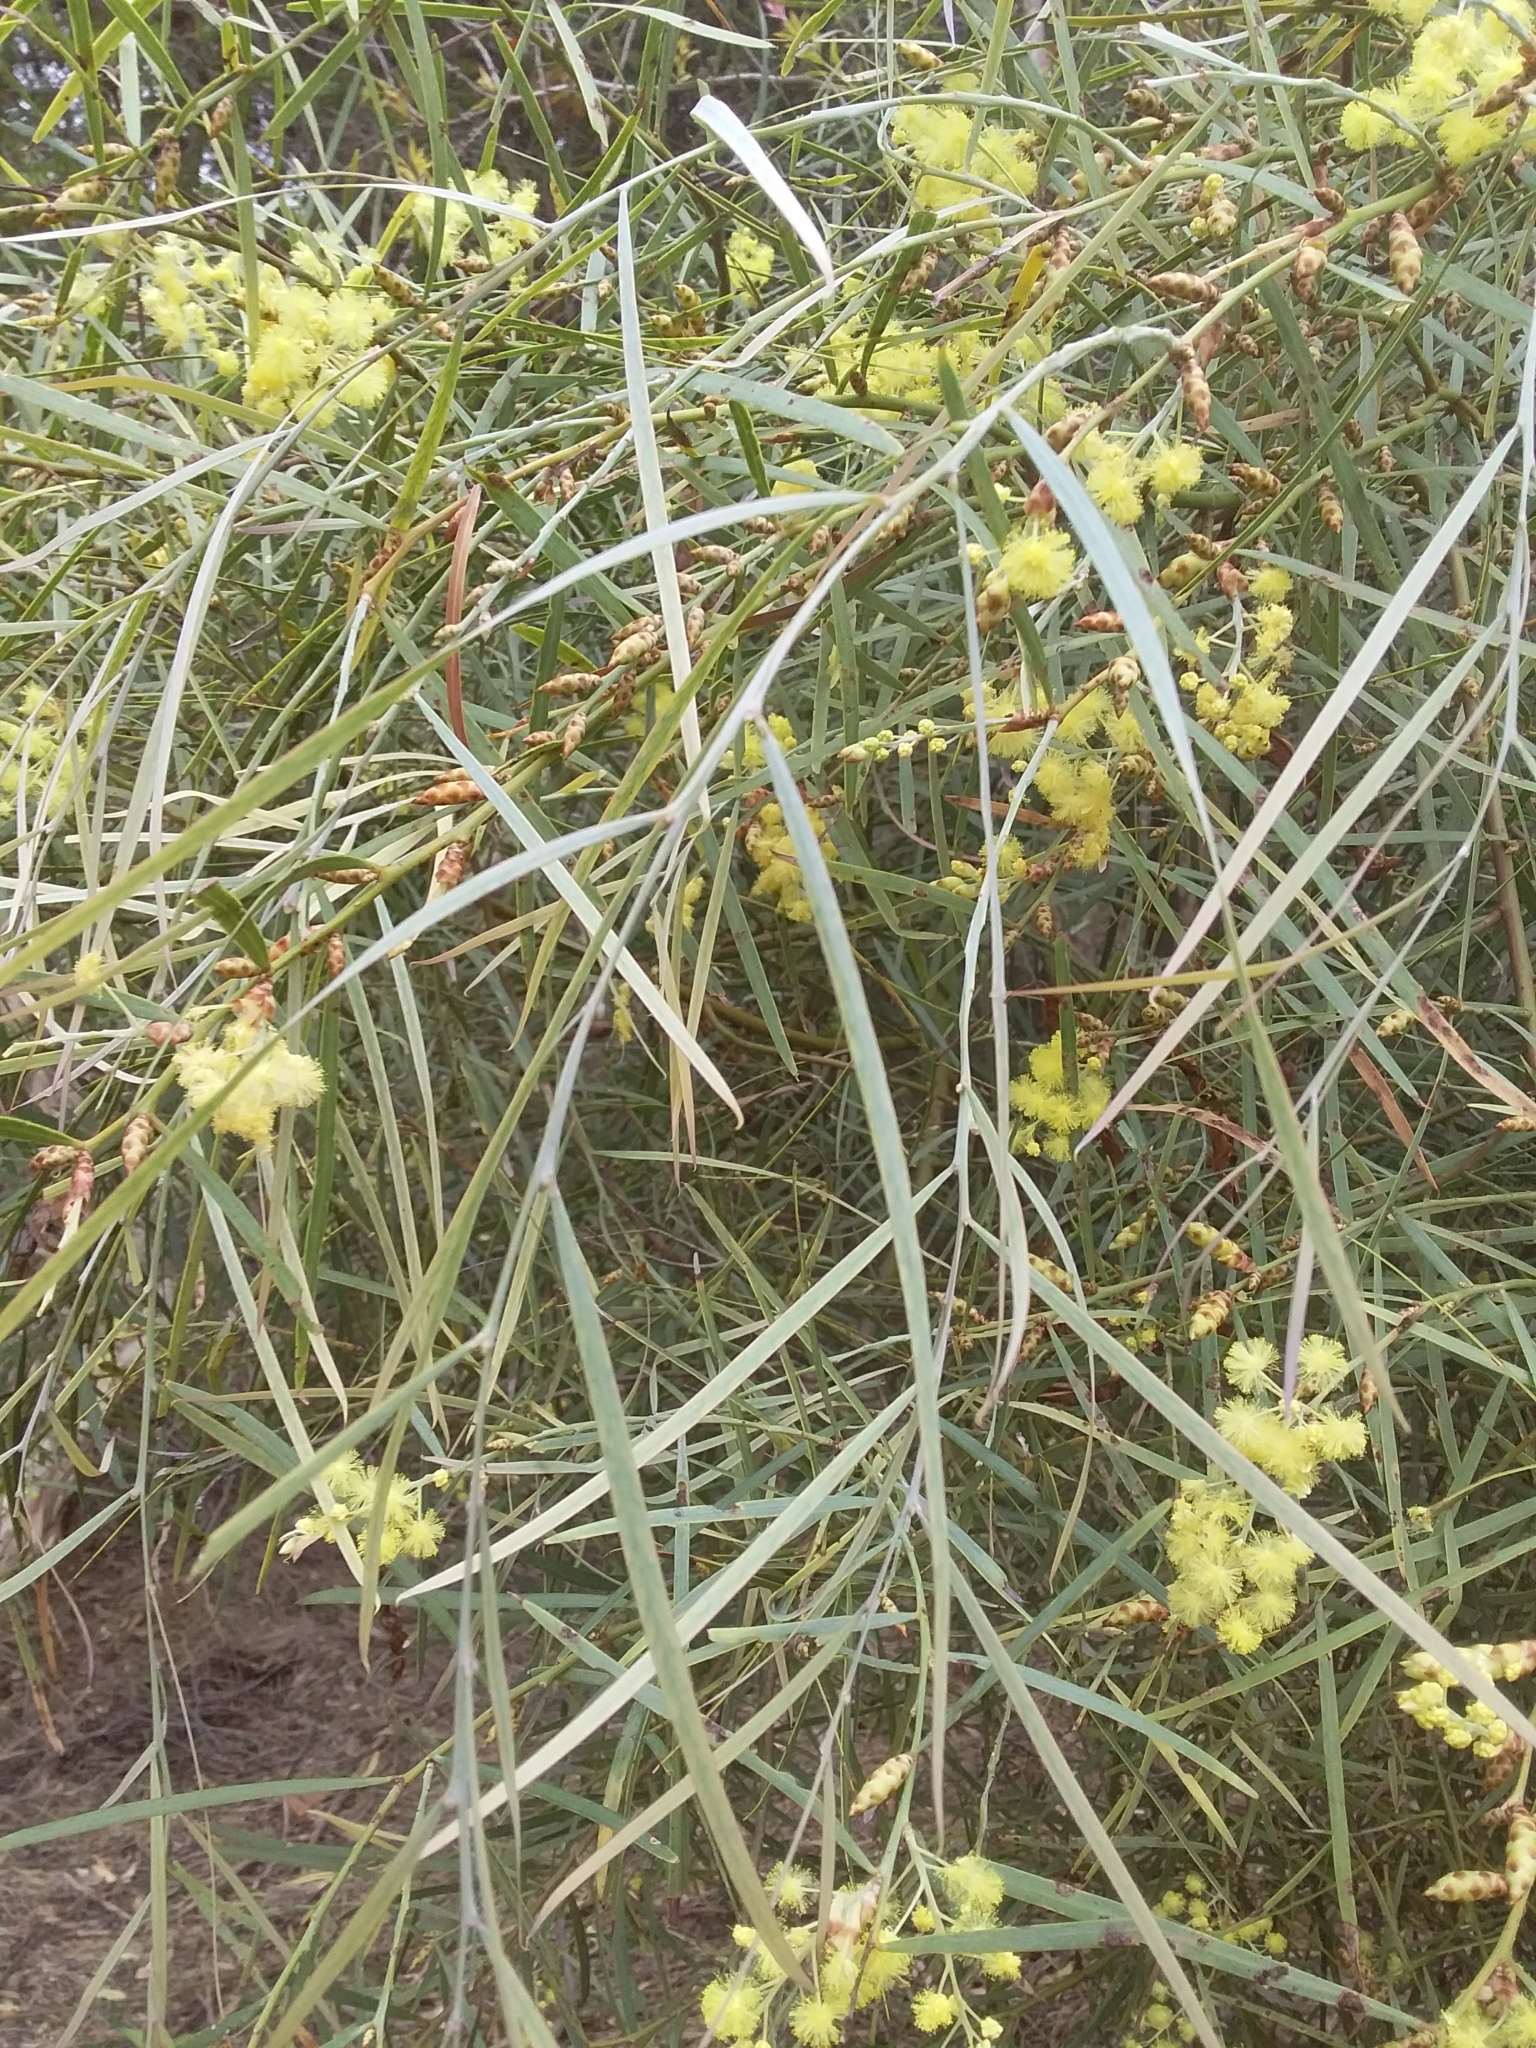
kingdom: Plantae
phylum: Tracheophyta
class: Magnoliopsida
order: Fabales
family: Fabaceae
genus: Acacia
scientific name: Acacia iteaphylla
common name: Flinders ranges wattle
